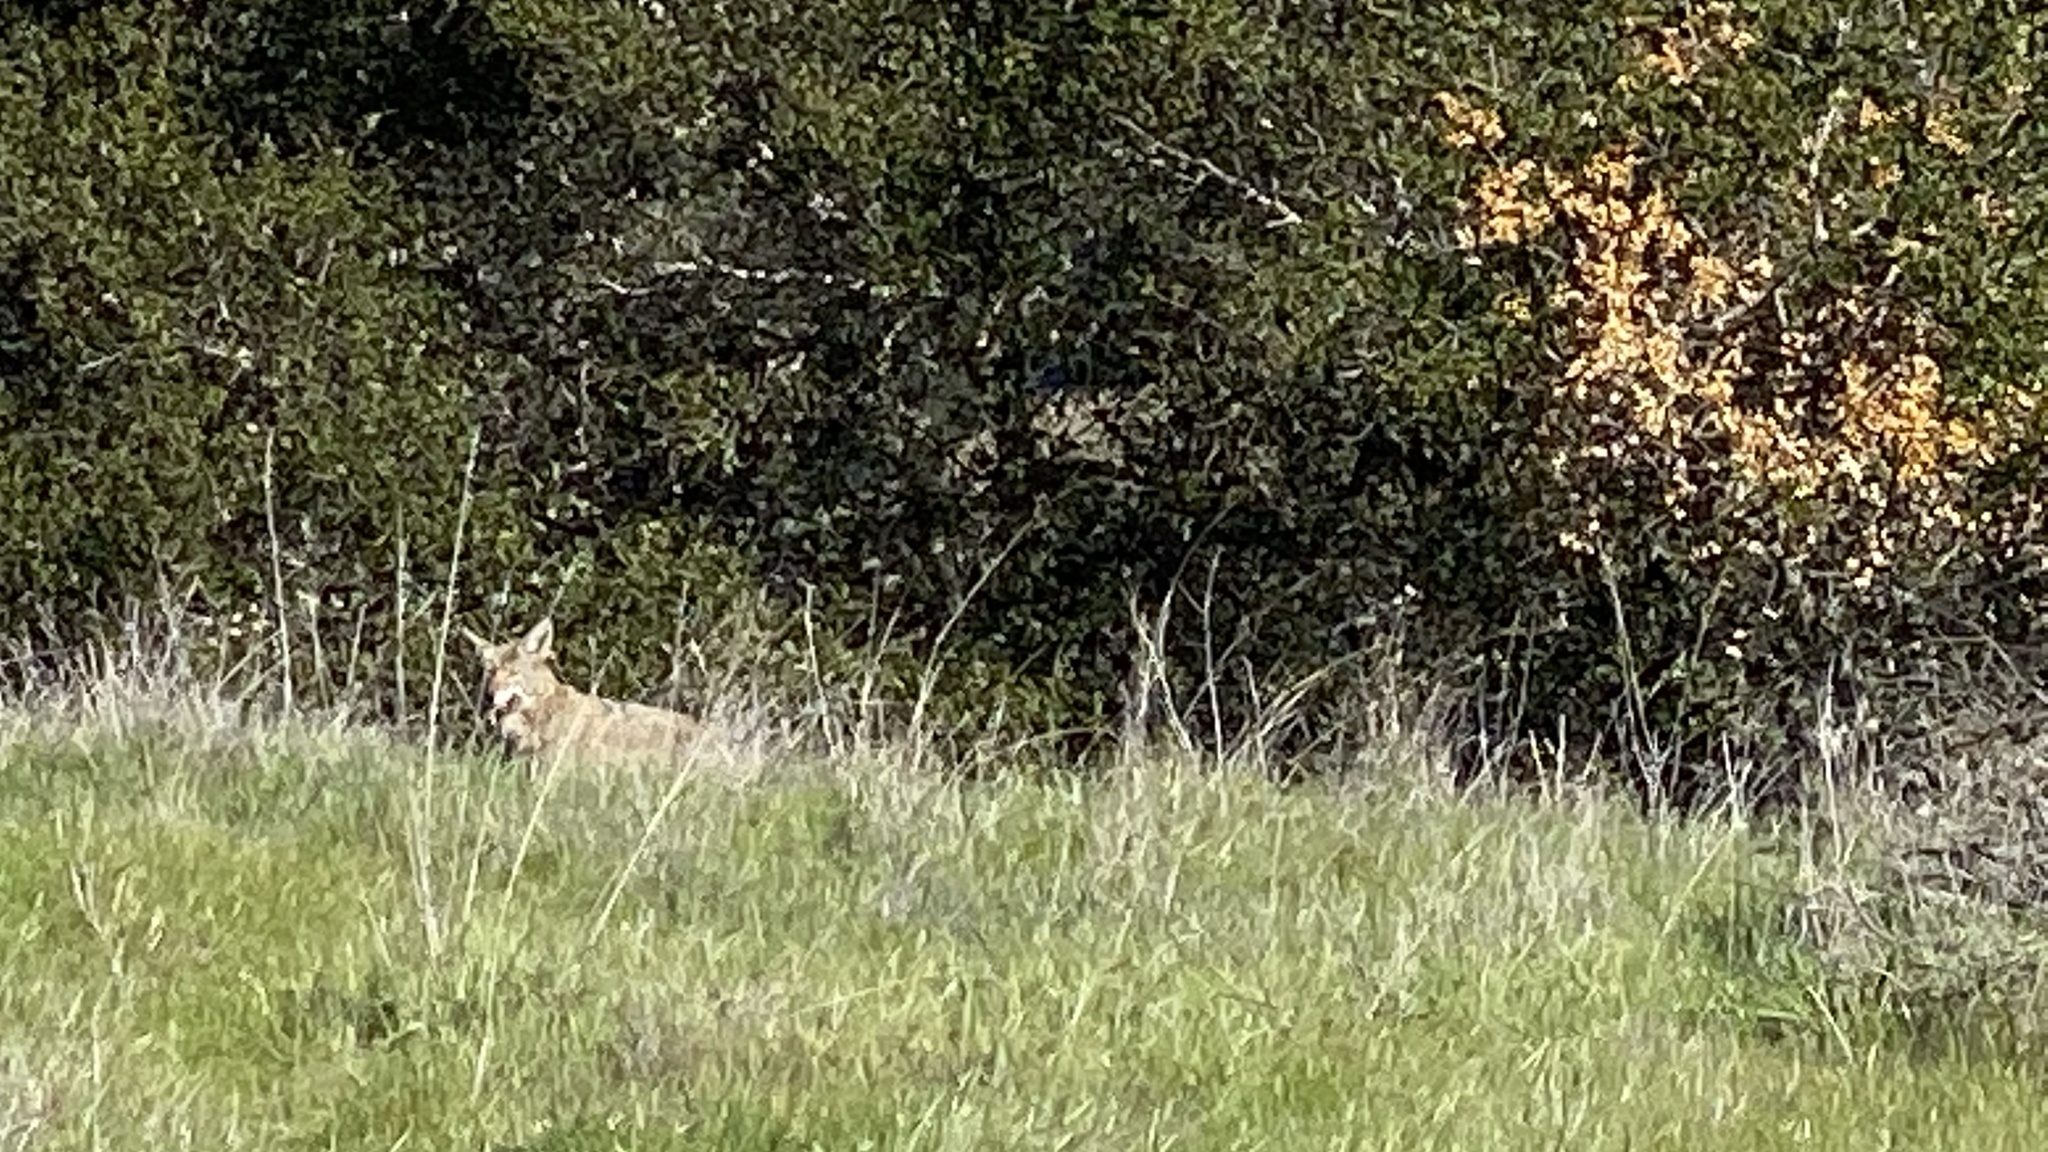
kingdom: Animalia
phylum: Chordata
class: Mammalia
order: Carnivora
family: Canidae
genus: Canis
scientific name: Canis latrans
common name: Coyote
